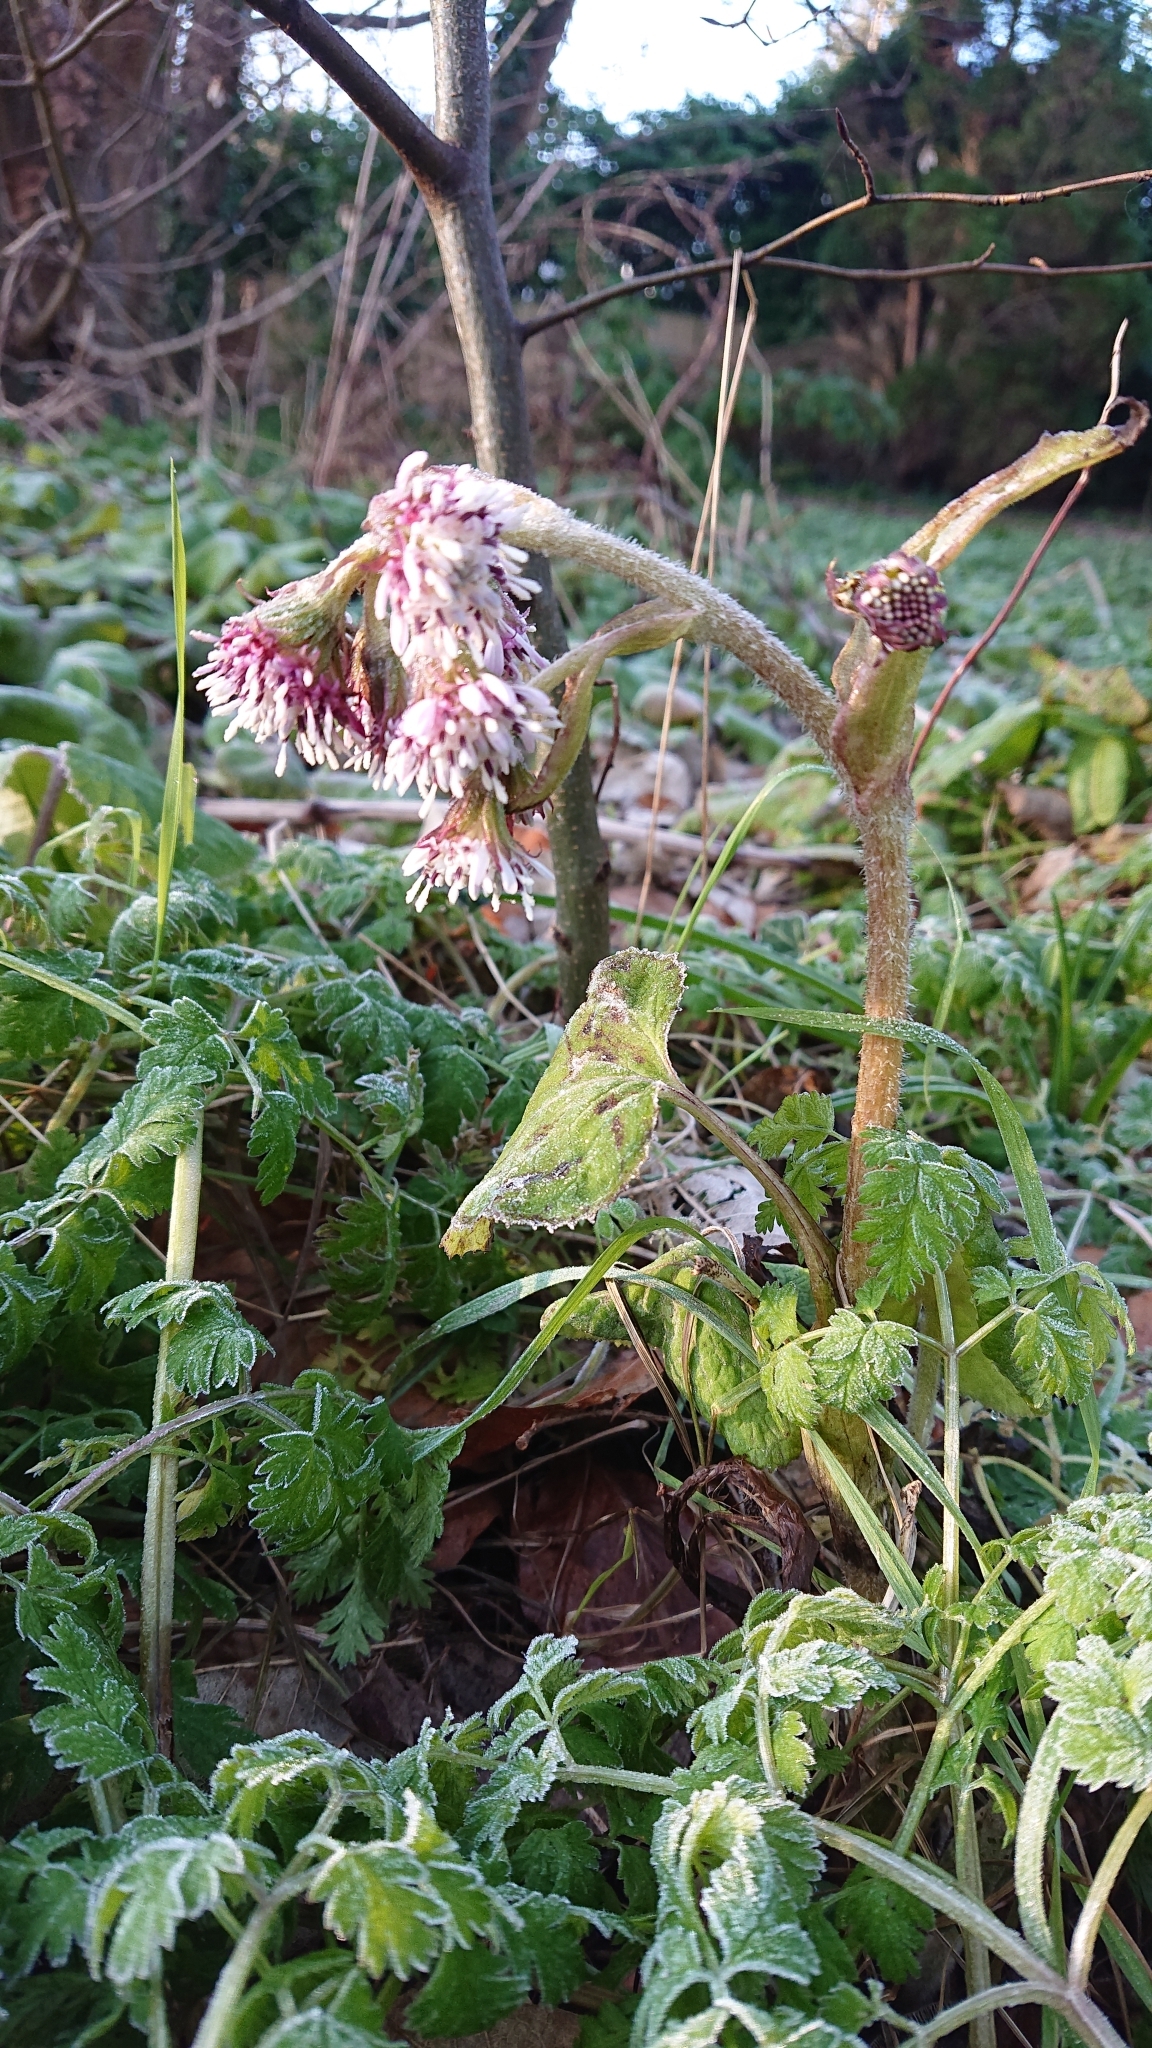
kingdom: Plantae
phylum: Tracheophyta
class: Magnoliopsida
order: Asterales
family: Asteraceae
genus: Petasites
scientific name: Petasites pyrenaicus
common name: Winter heliotrope
